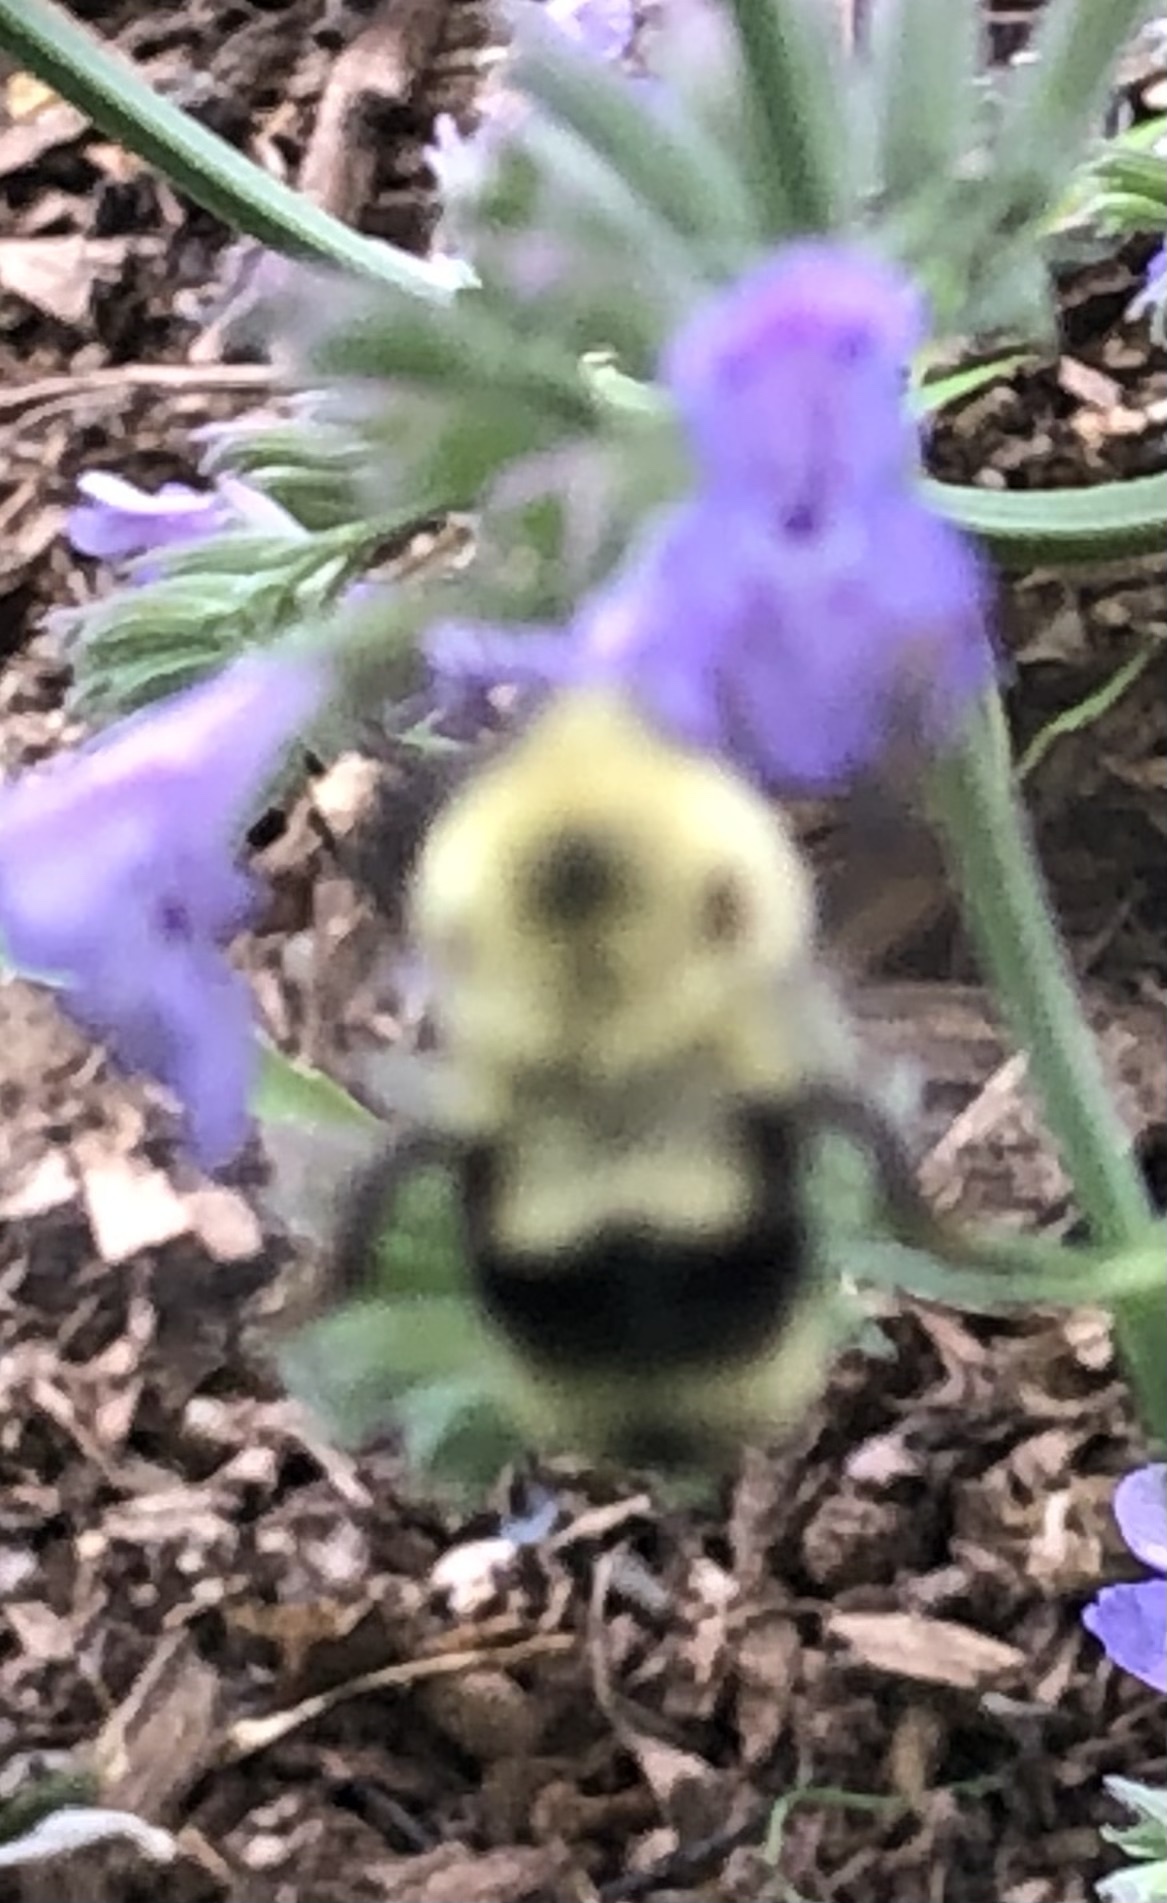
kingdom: Animalia
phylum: Arthropoda
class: Insecta
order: Hymenoptera
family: Apidae
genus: Bombus
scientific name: Bombus bimaculatus
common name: Two-spotted bumble bee
